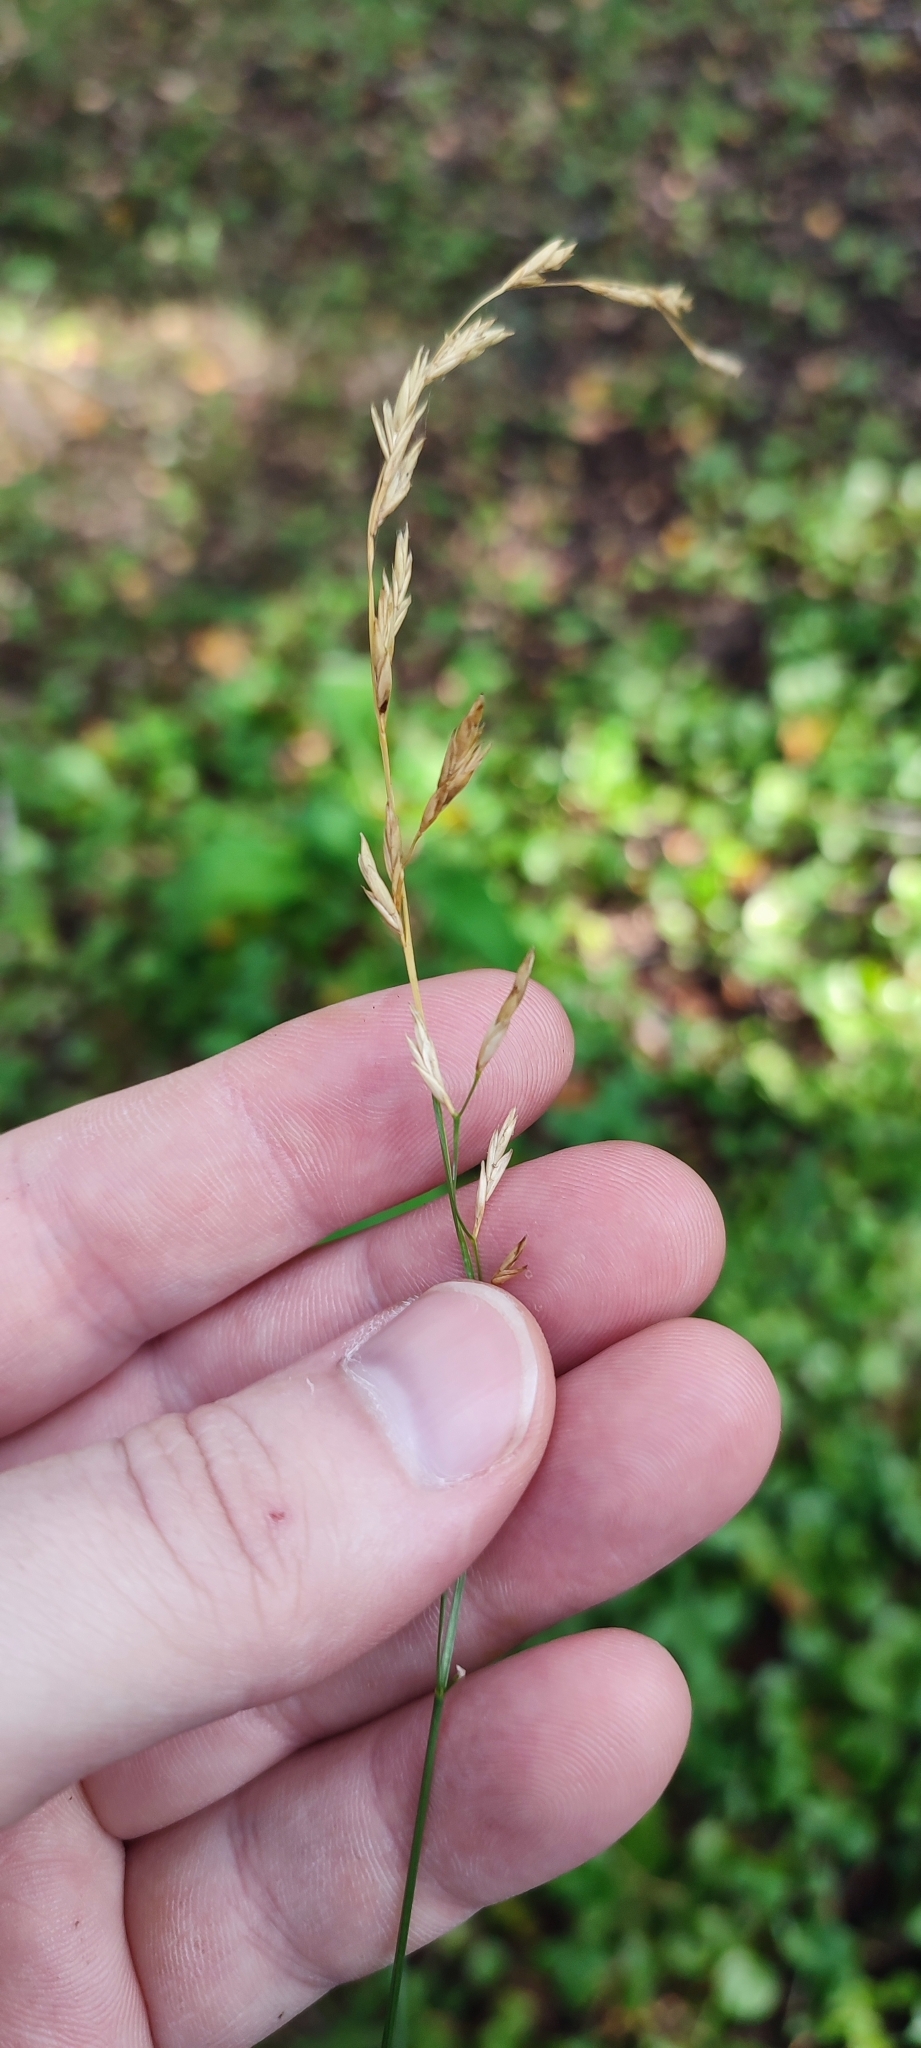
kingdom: Plantae
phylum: Tracheophyta
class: Liliopsida
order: Poales
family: Poaceae
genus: Lolium
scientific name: Lolium pratense
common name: Dover grass
